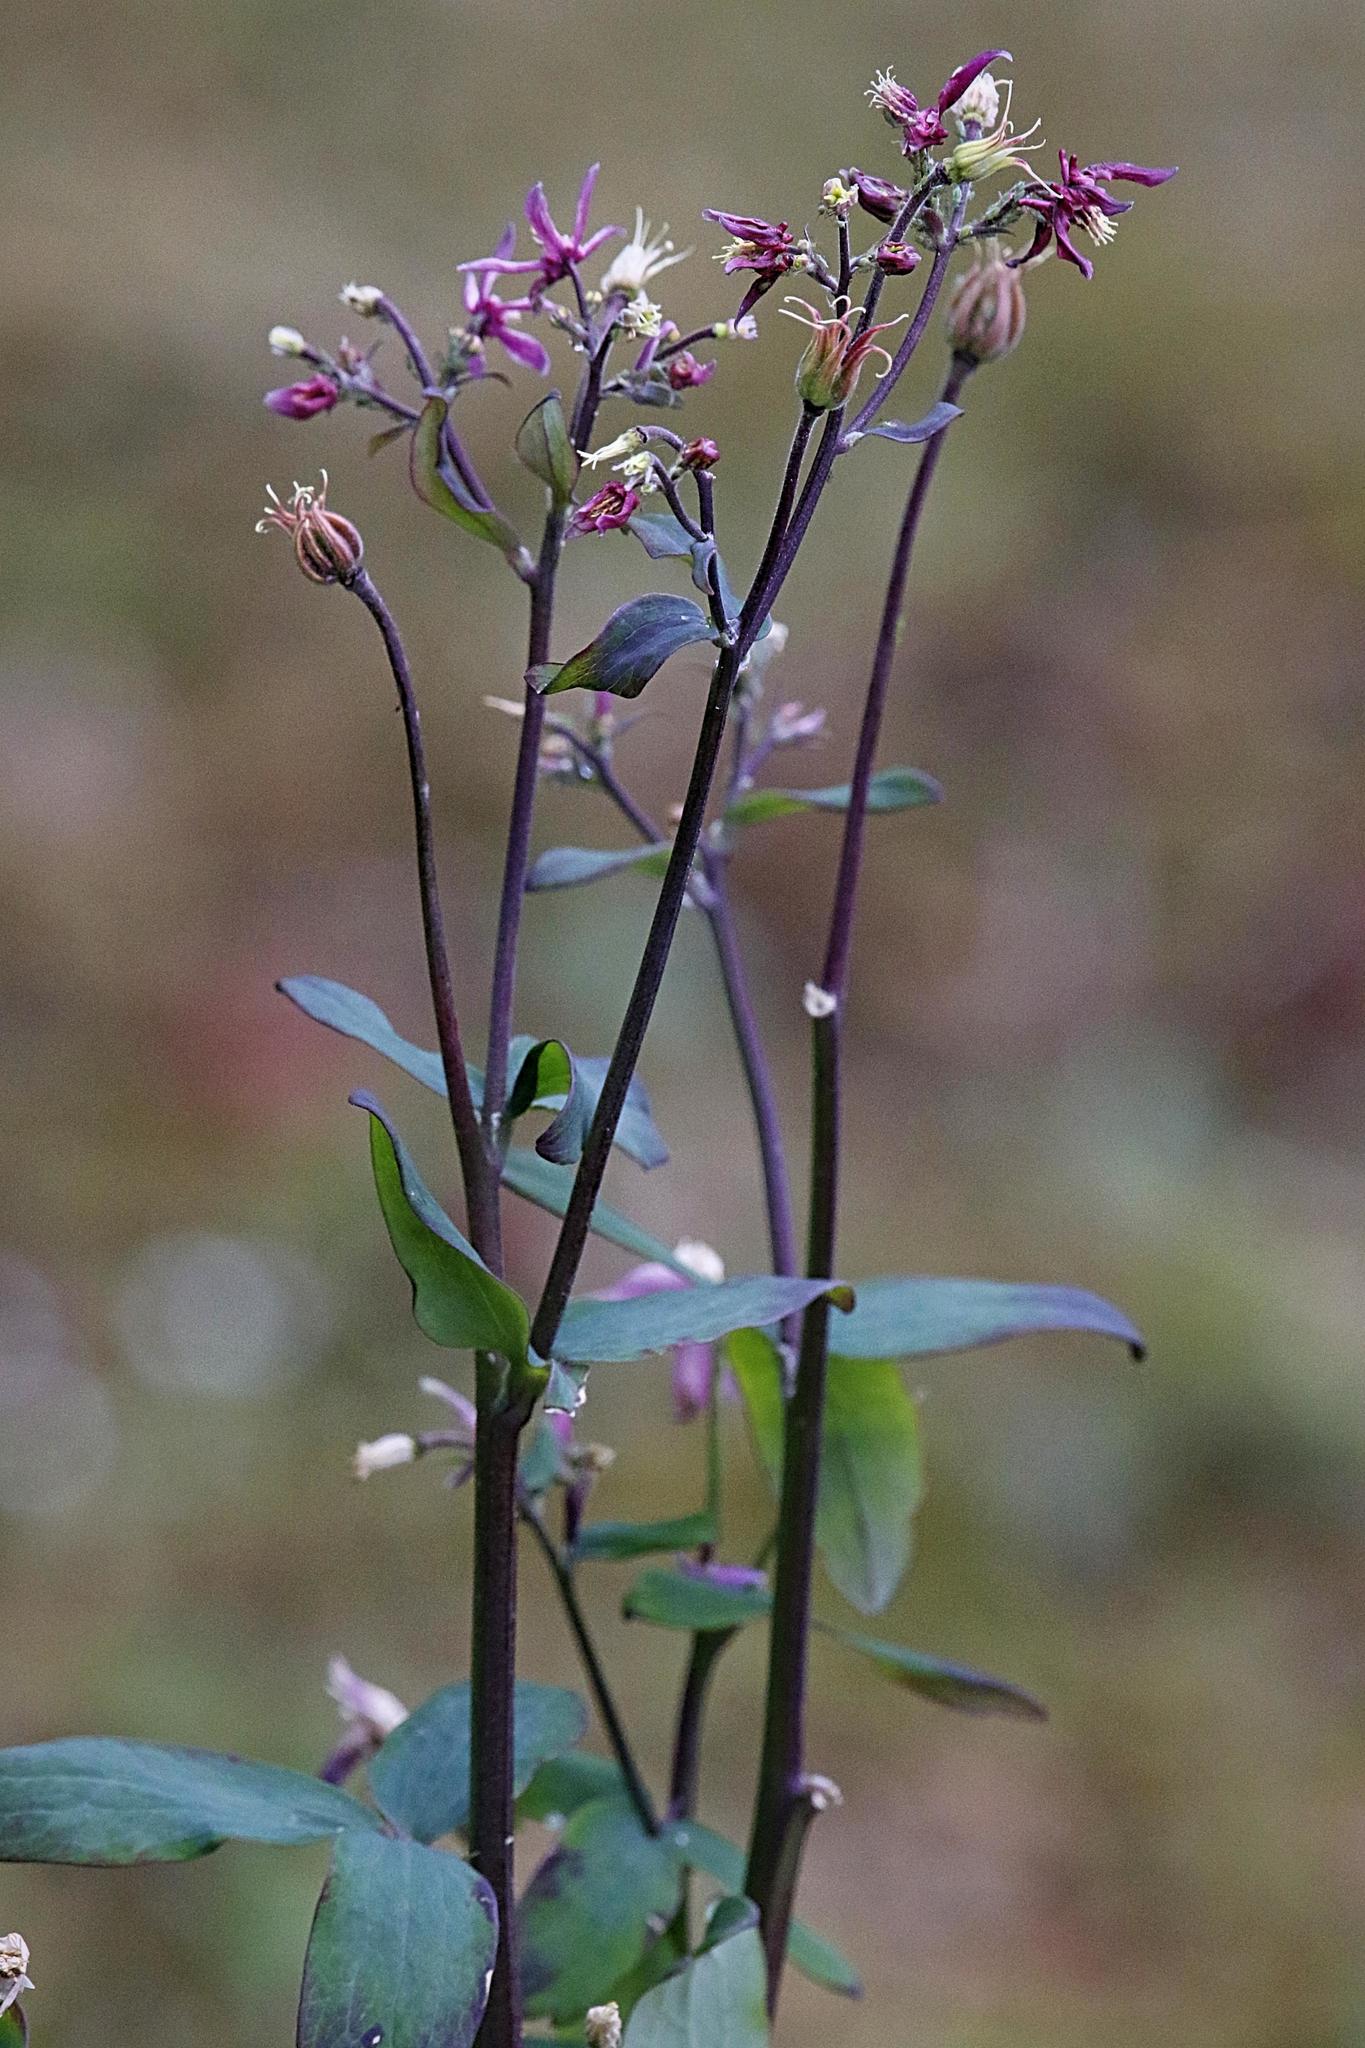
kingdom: Plantae
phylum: Tracheophyta
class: Magnoliopsida
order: Ranunculales
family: Ranunculaceae
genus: Aquilegia
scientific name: Aquilegia vulgaris
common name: Columbine
